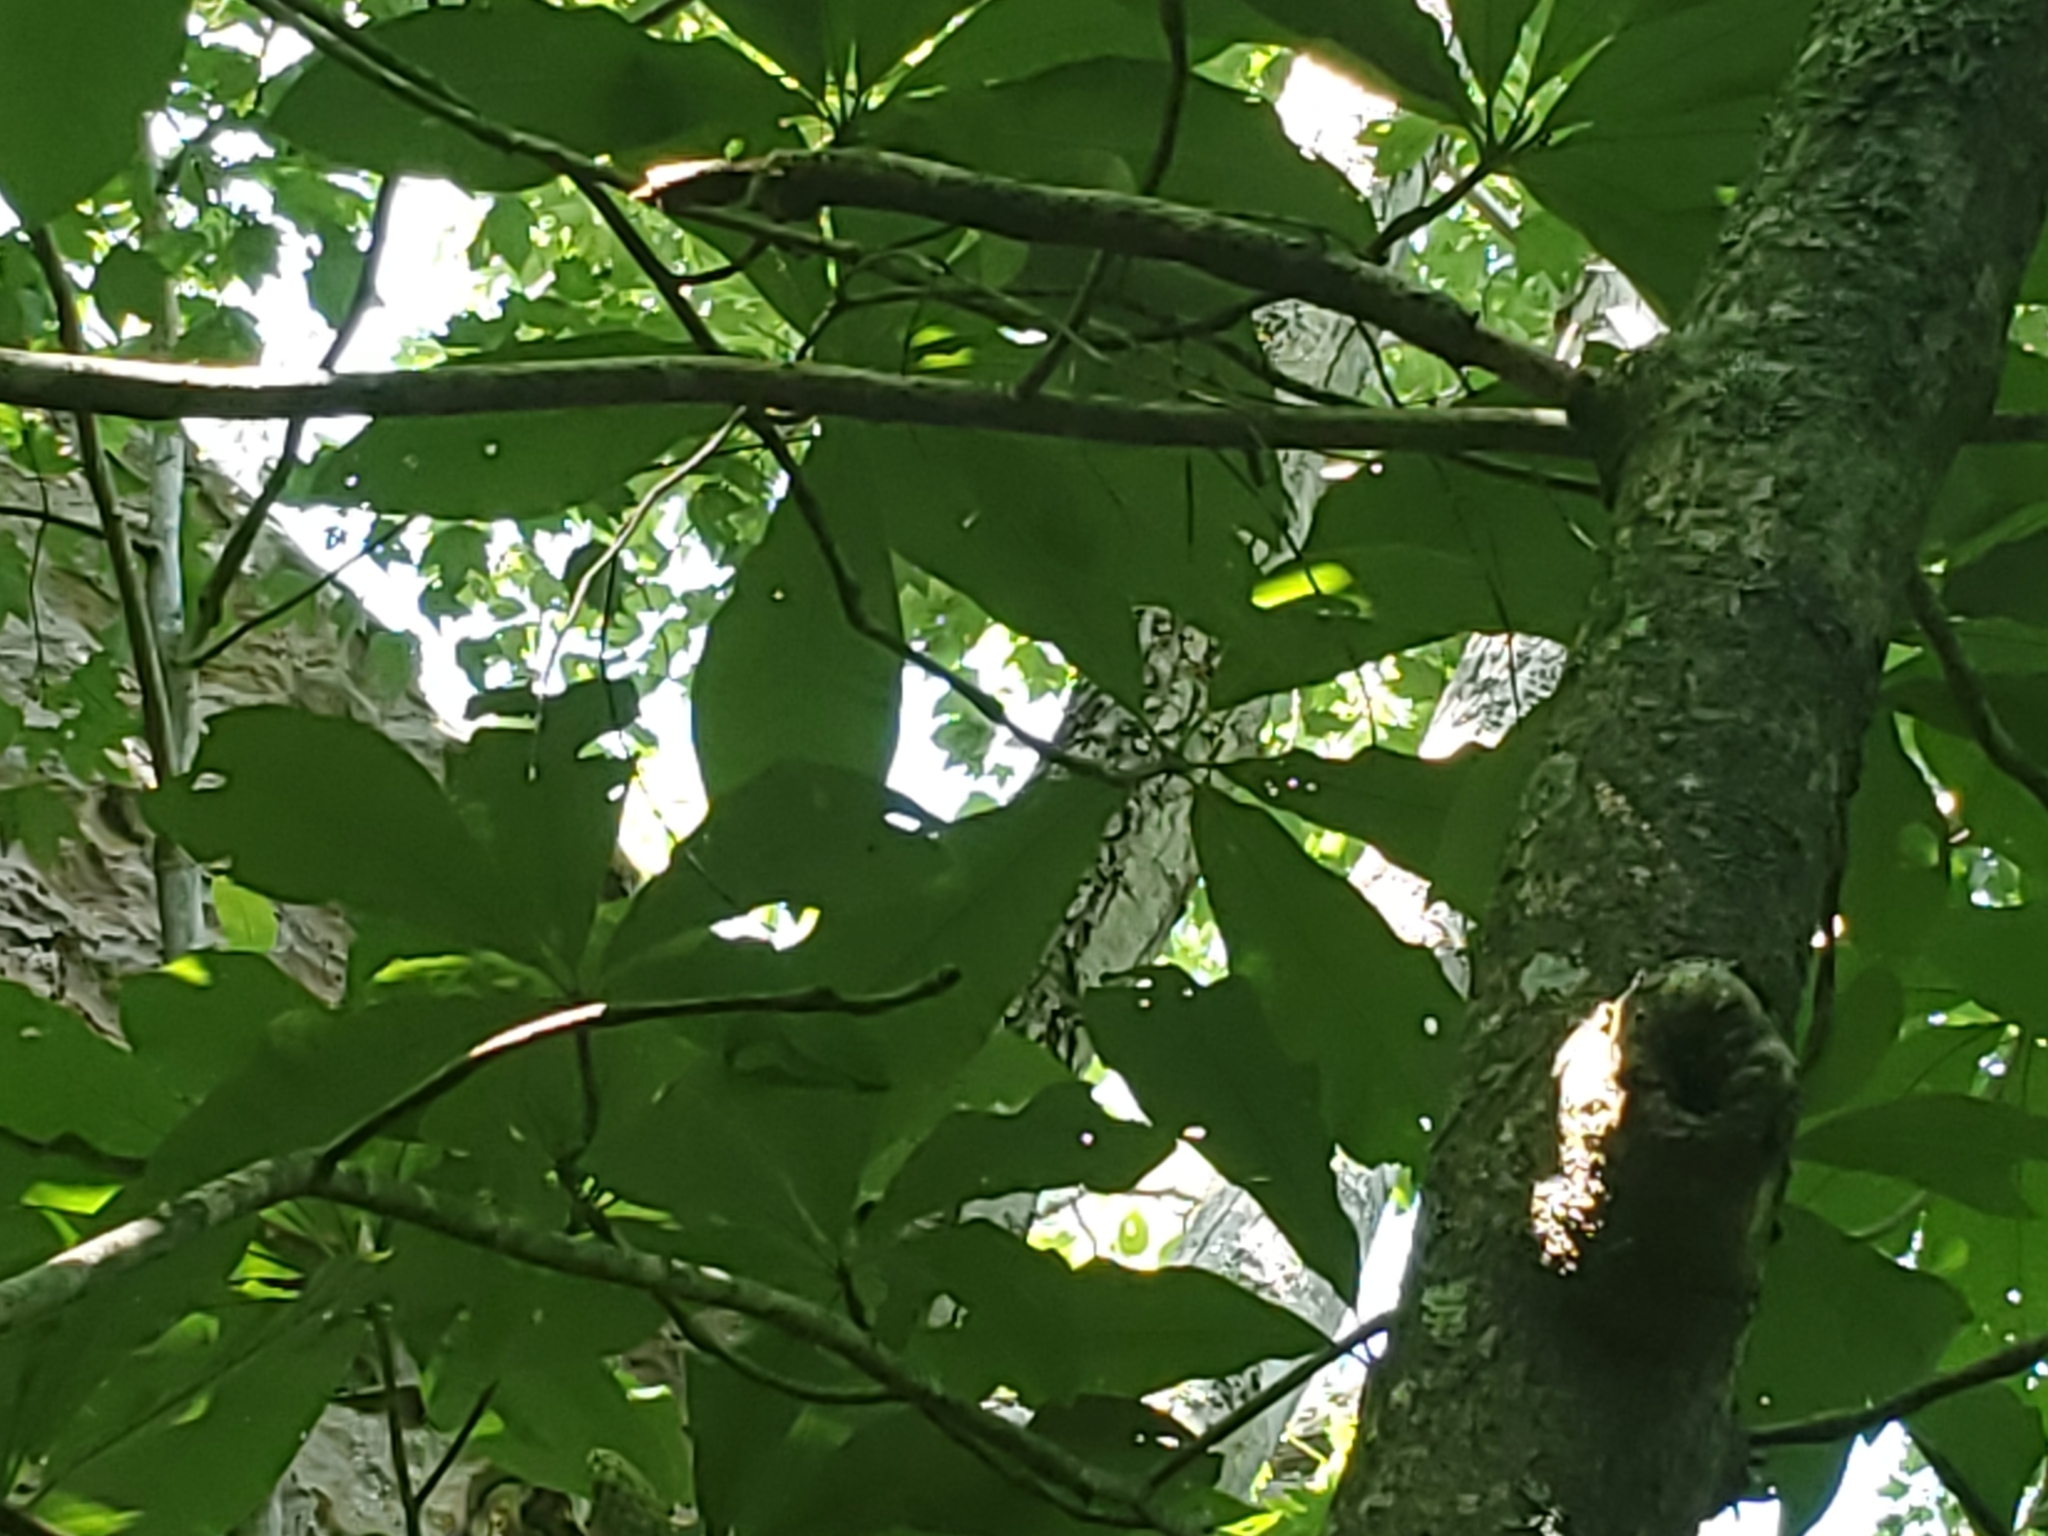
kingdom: Plantae
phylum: Tracheophyta
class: Magnoliopsida
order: Magnoliales
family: Magnoliaceae
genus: Magnolia
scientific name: Magnolia tripetala
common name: Umbrella magnolia
